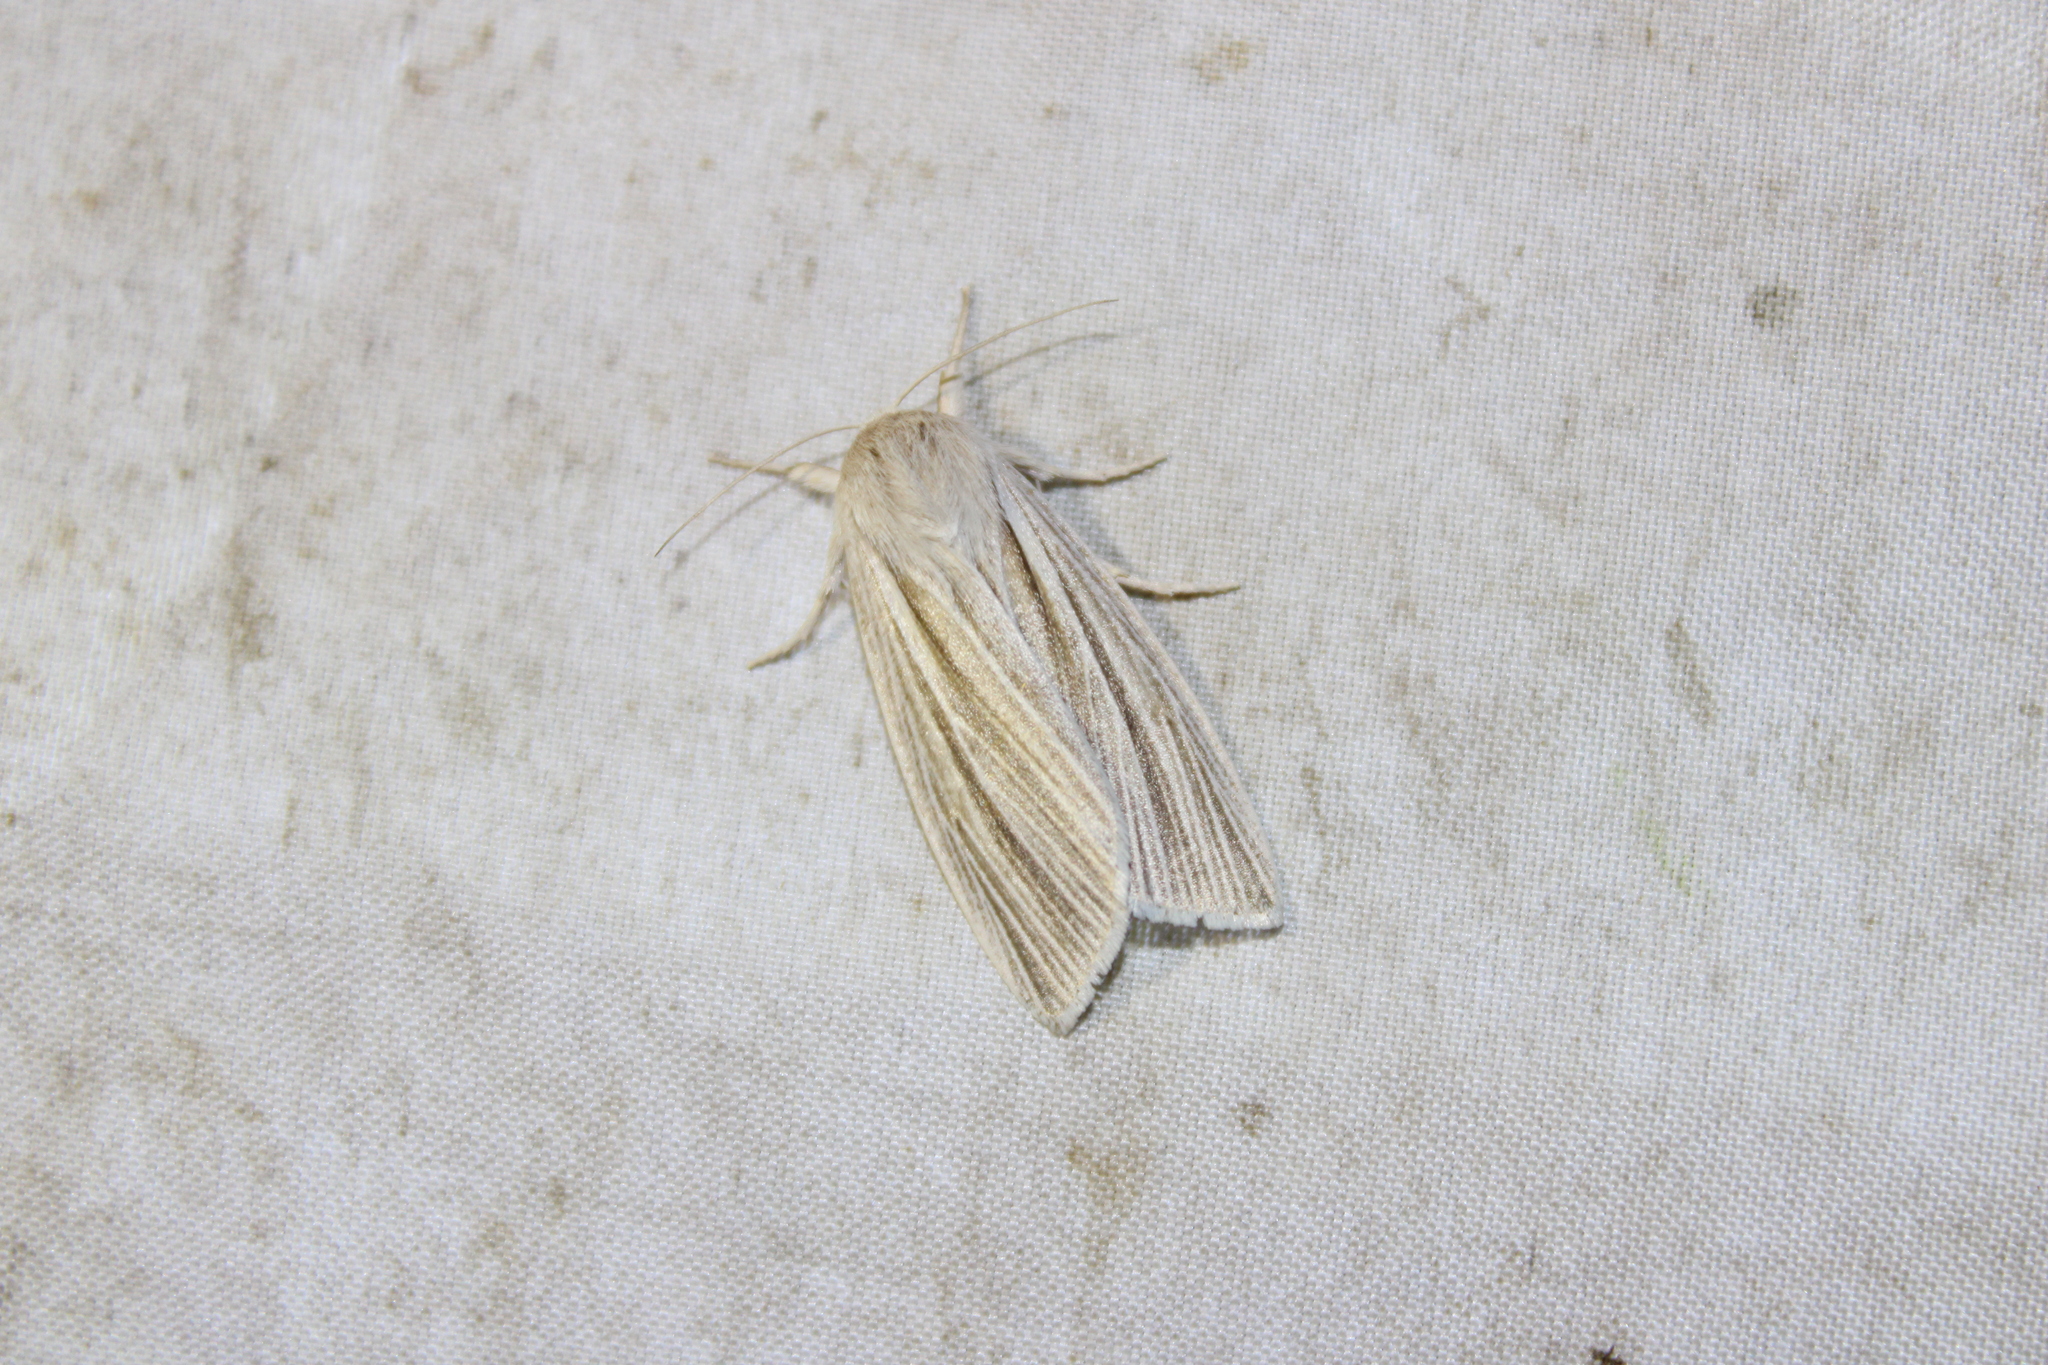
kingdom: Animalia
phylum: Arthropoda
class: Insecta
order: Lepidoptera
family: Noctuidae
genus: Acronicta
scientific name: Acronicta insularis
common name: Henry's marsh moth
